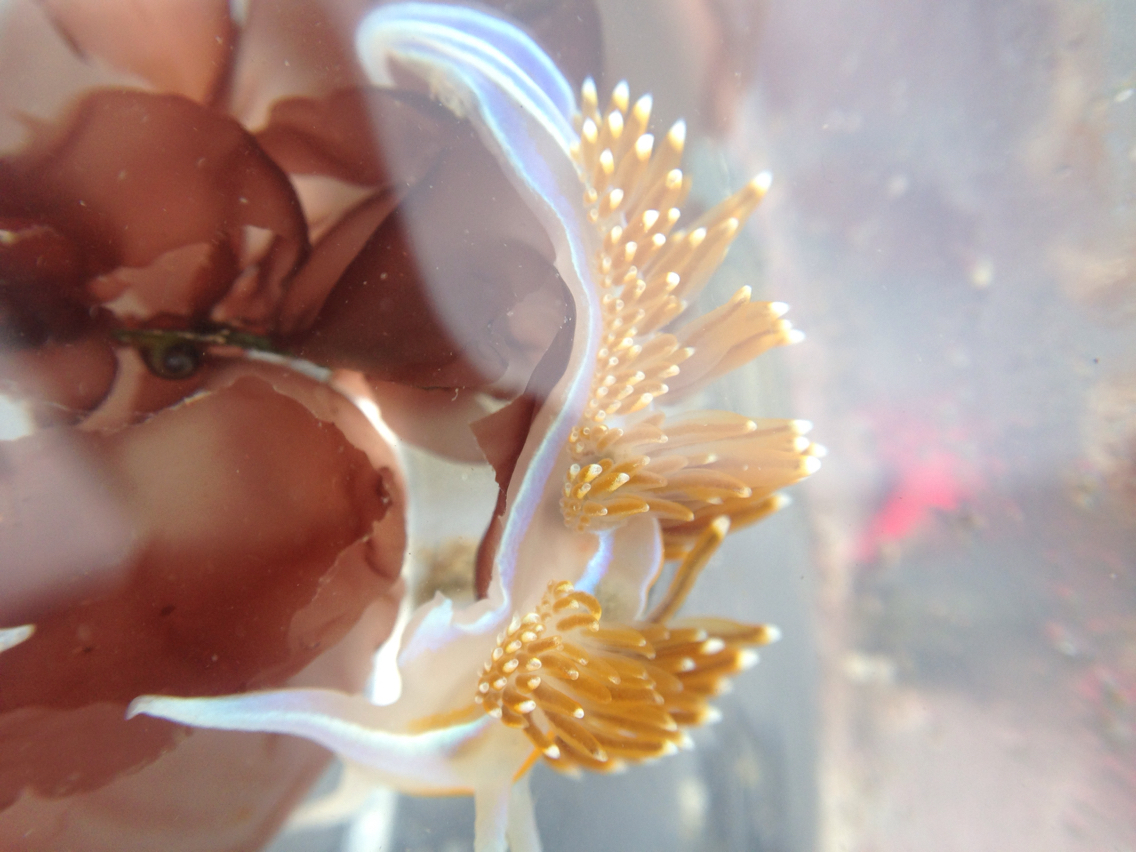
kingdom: Animalia
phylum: Mollusca
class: Gastropoda
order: Nudibranchia
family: Myrrhinidae
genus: Hermissenda
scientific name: Hermissenda opalescens
